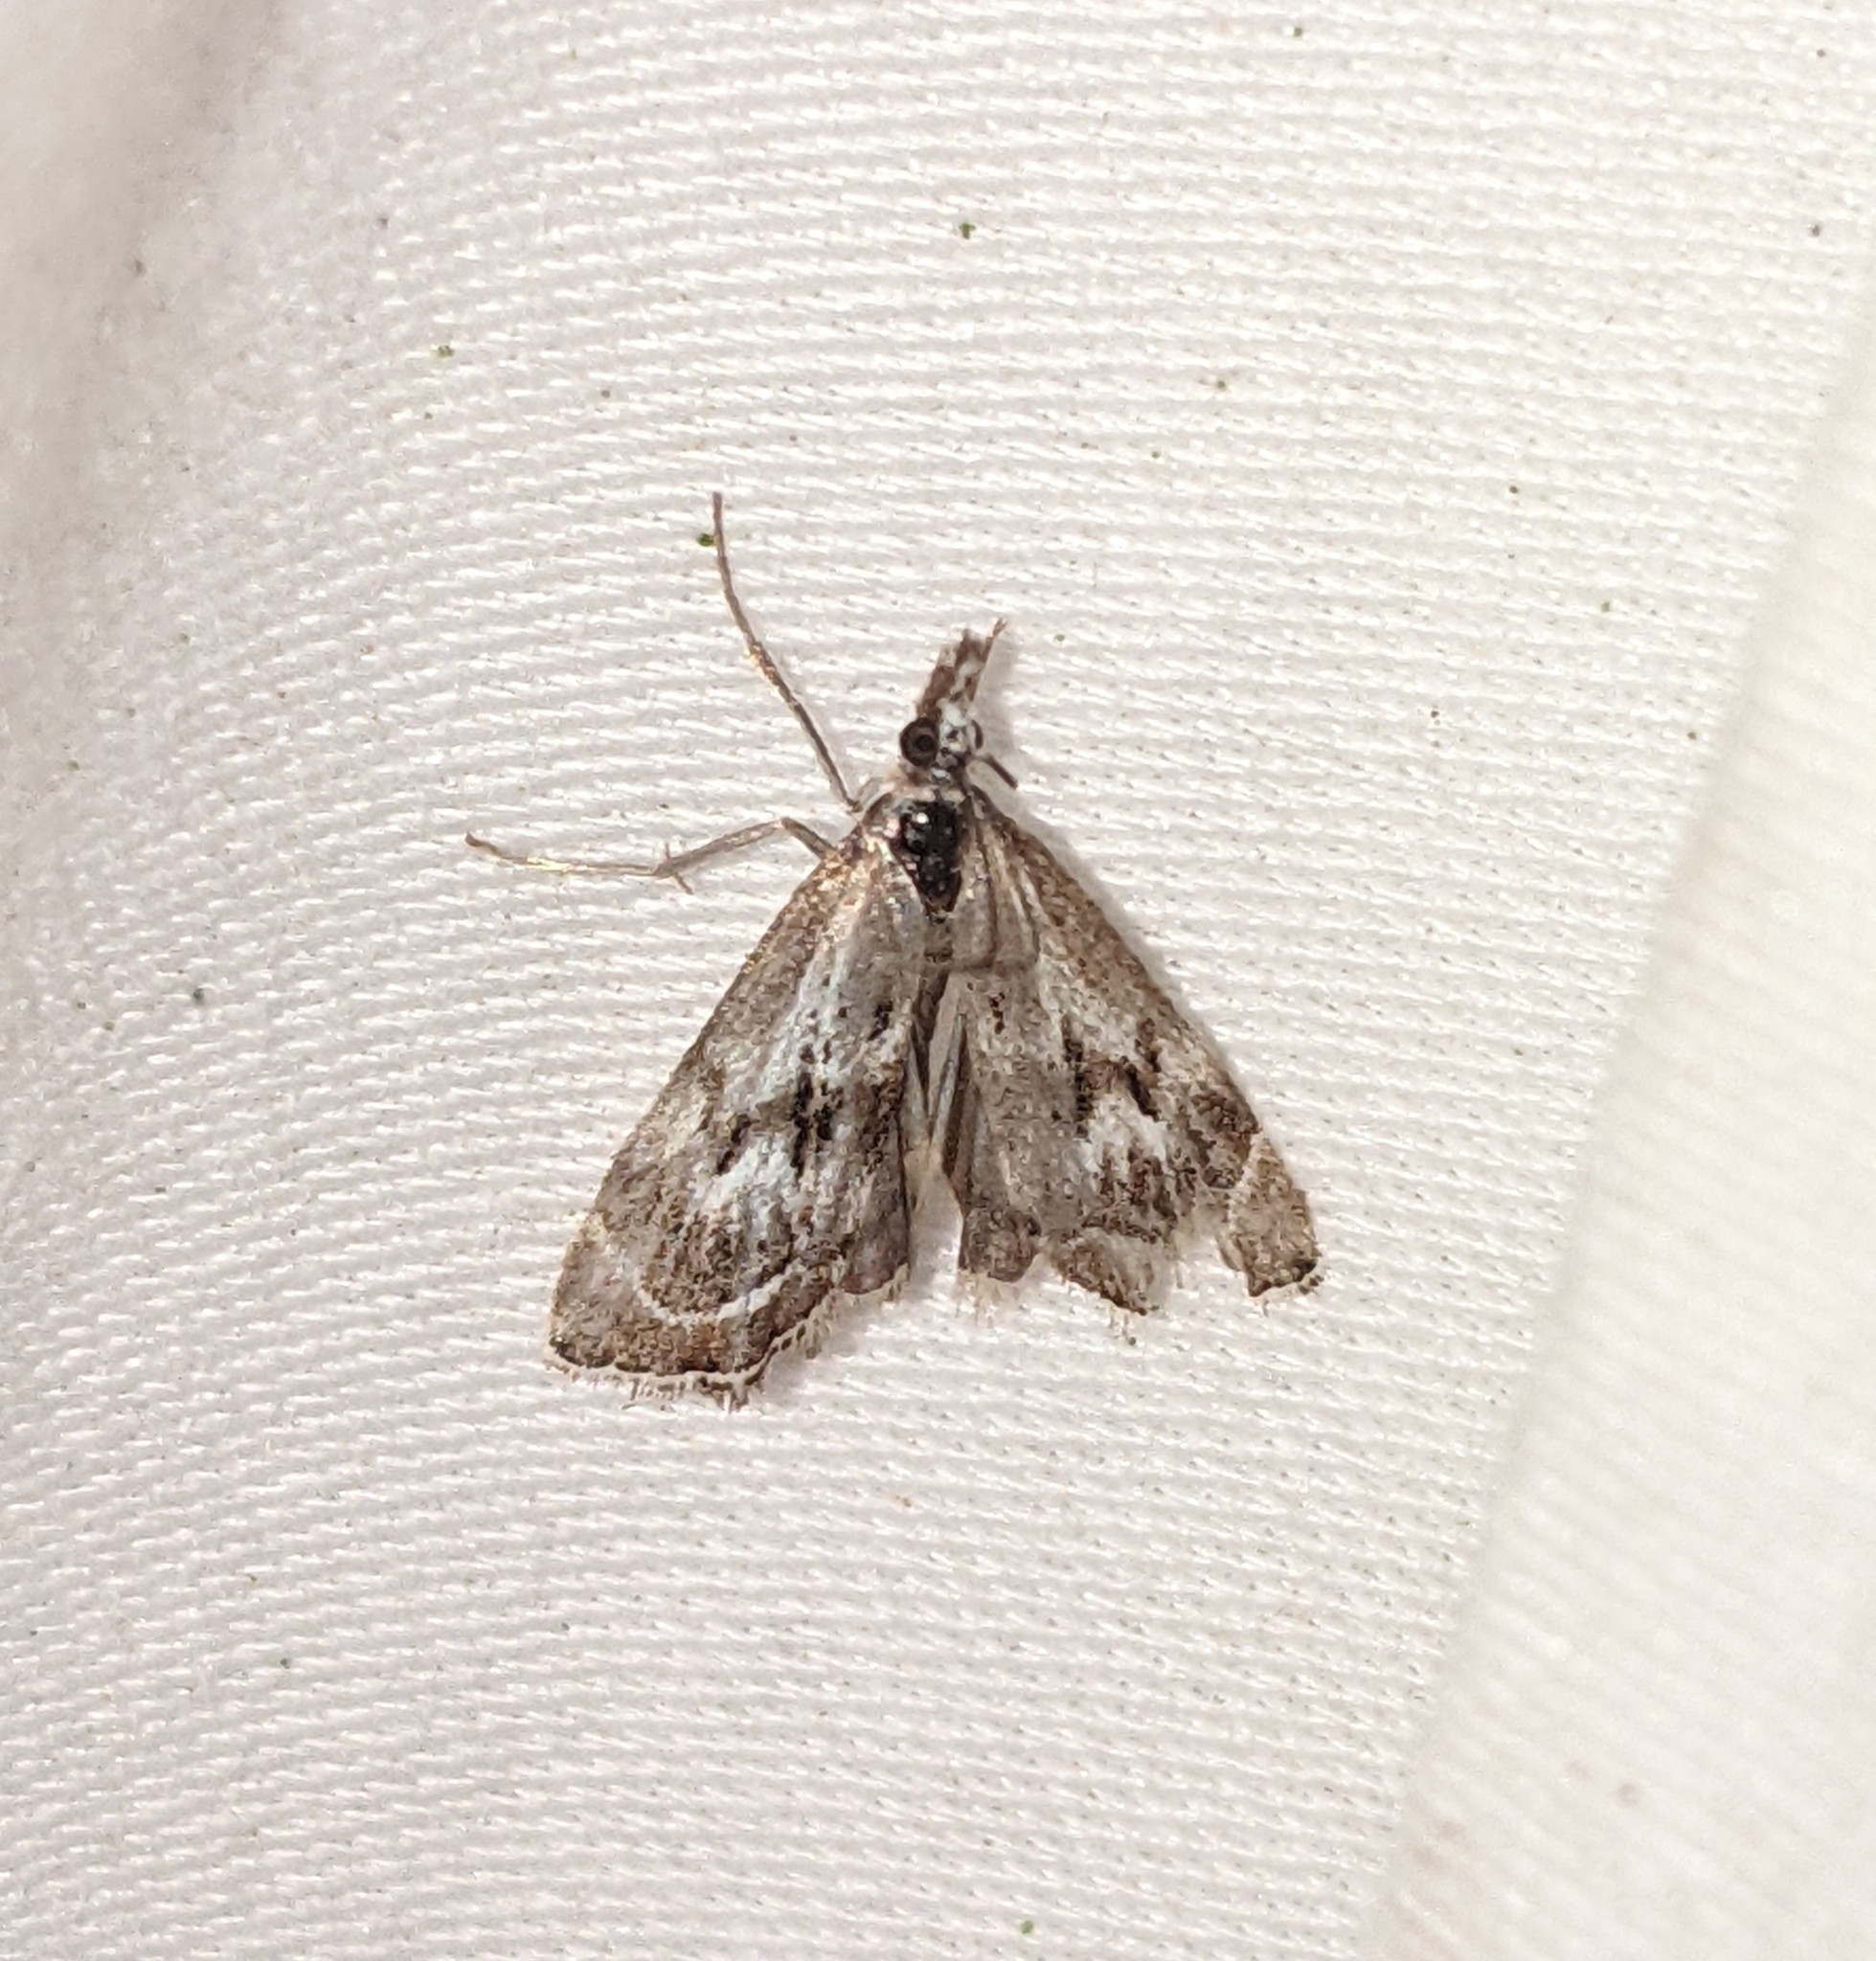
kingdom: Animalia
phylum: Arthropoda
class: Insecta
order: Lepidoptera
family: Crambidae
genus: Catoptria
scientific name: Catoptria oregonicus
